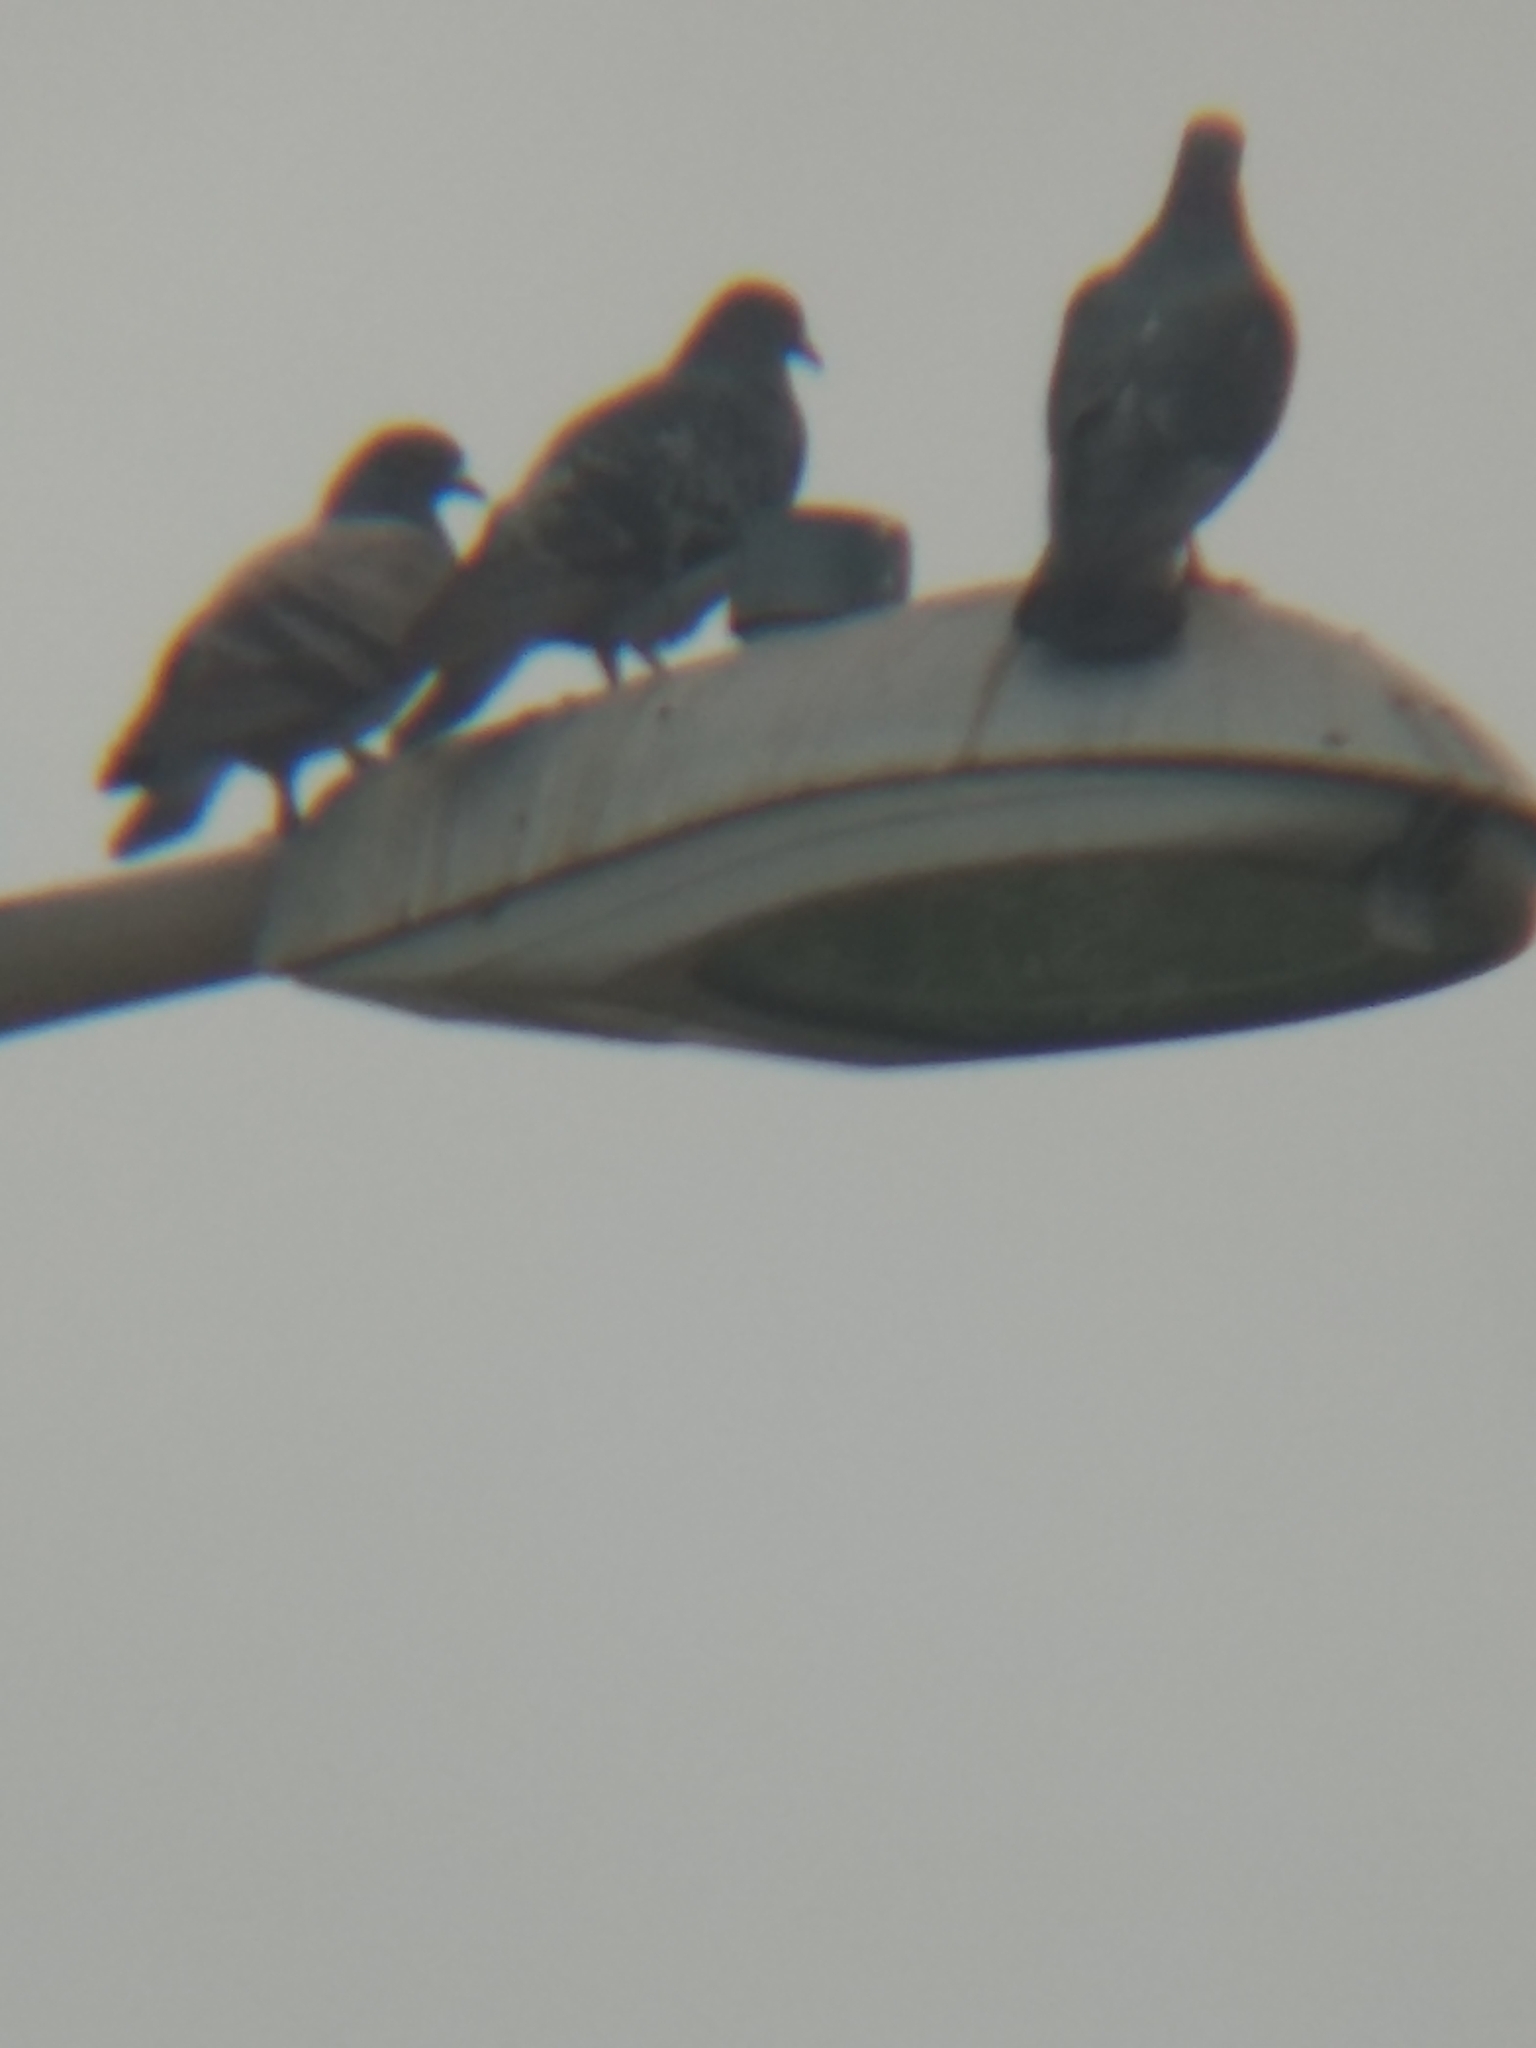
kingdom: Animalia
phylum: Chordata
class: Aves
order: Columbiformes
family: Columbidae
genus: Columba
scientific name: Columba livia
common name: Rock pigeon
